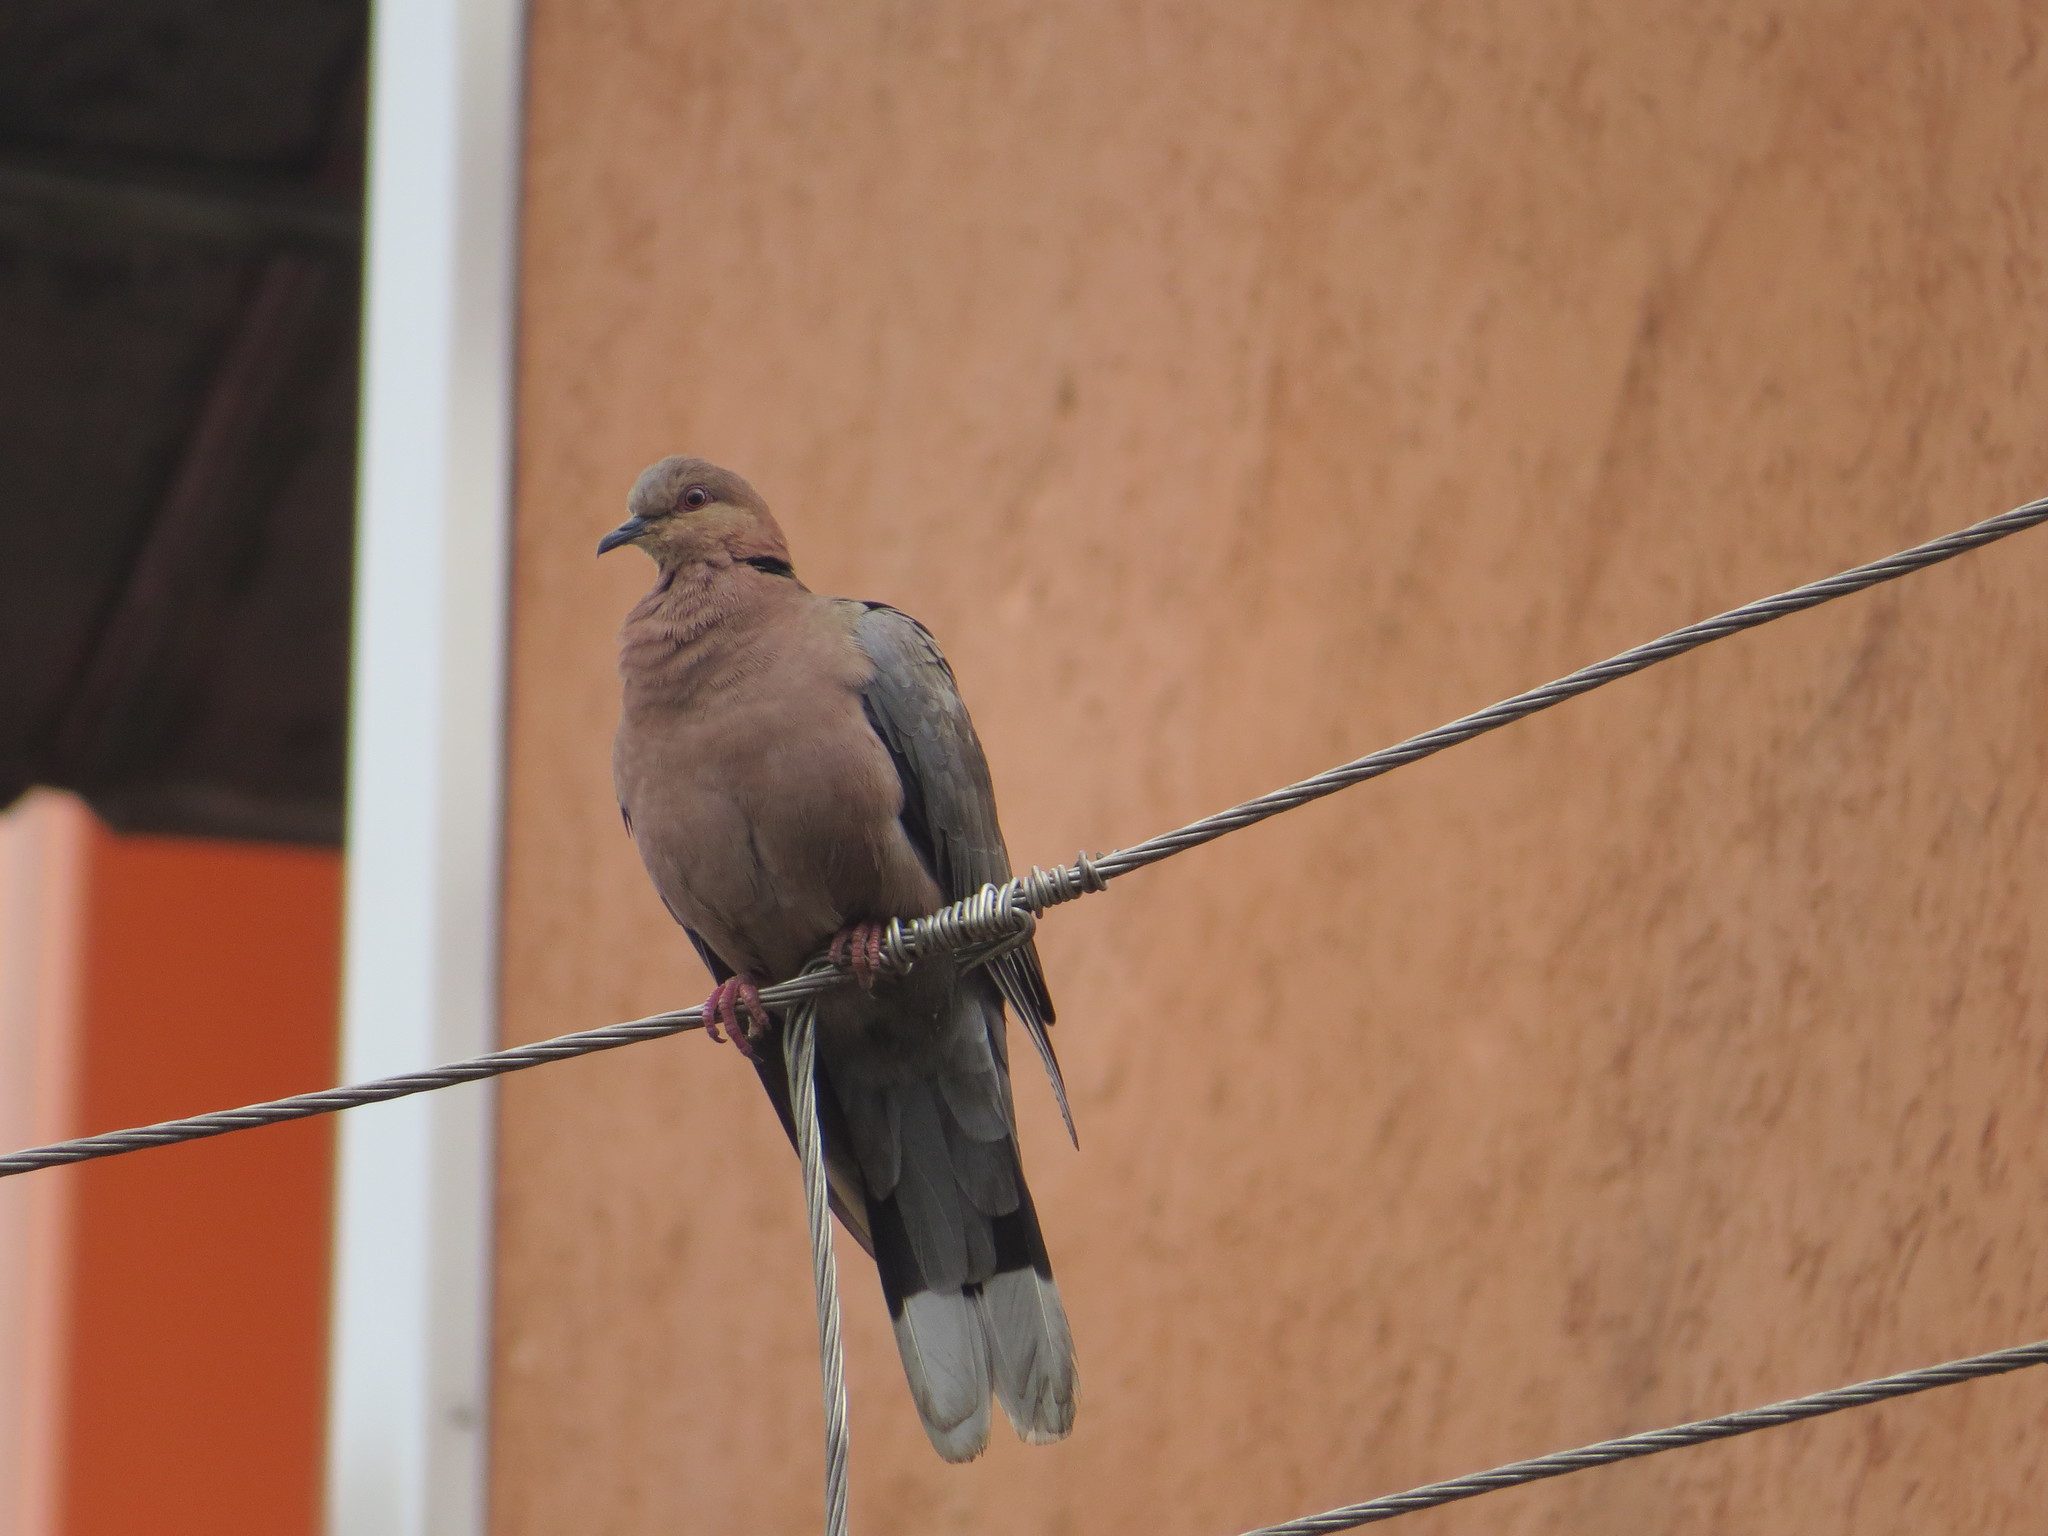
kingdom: Animalia
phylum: Chordata
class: Aves
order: Columbiformes
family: Columbidae
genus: Streptopelia
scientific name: Streptopelia semitorquata
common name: Red-eyed dove
